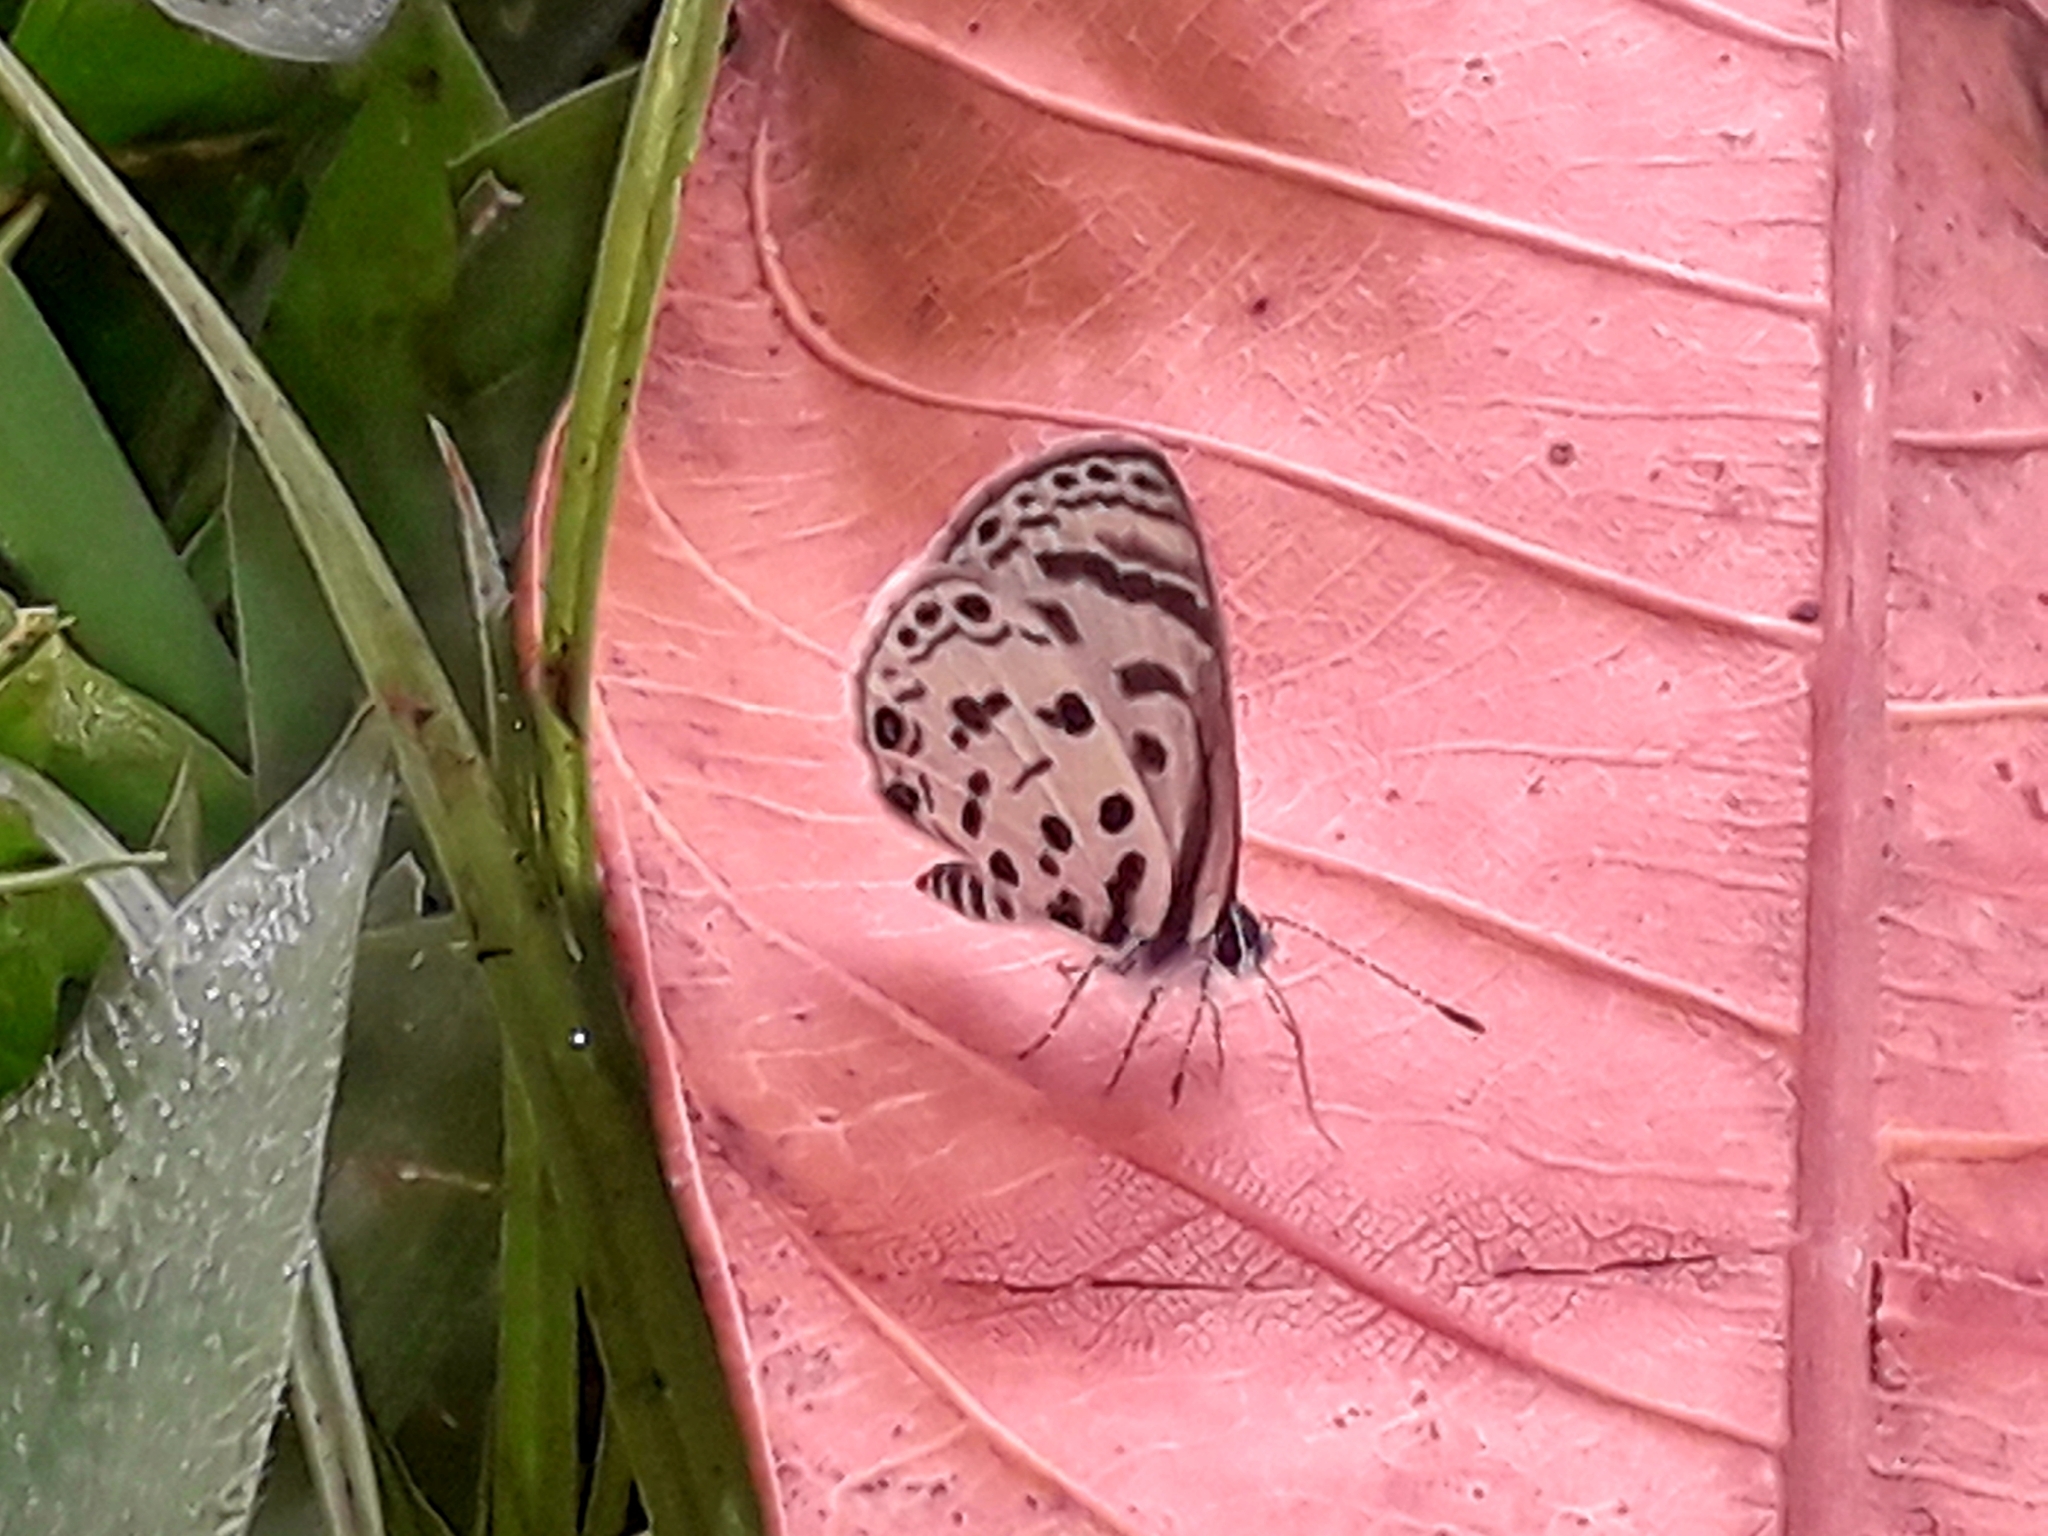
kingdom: Animalia
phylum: Arthropoda
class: Insecta
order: Lepidoptera
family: Lycaenidae
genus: Azanus
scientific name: Azanus mirza
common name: Mirza babul blue
